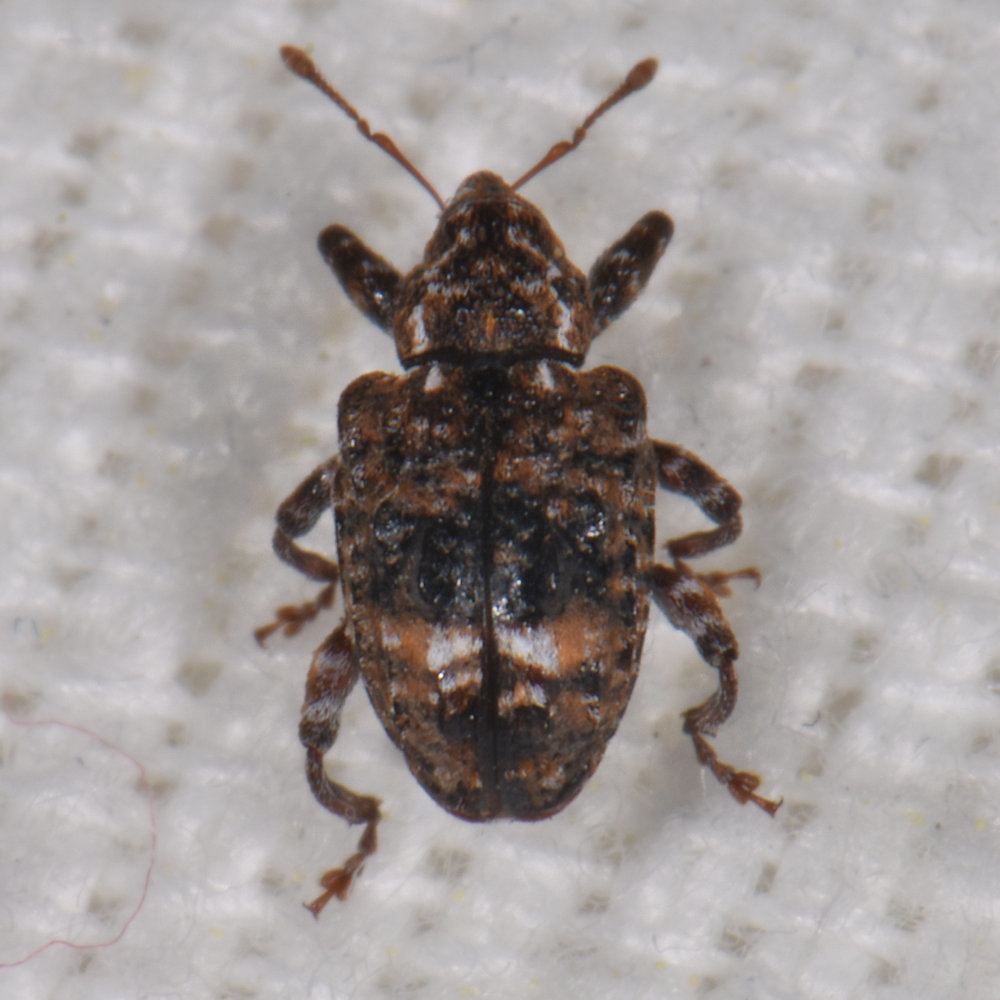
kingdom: Animalia
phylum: Arthropoda
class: Insecta
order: Coleoptera
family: Curculionidae
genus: Conotrachelus
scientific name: Conotrachelus nenuphar
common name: Plum curculio
